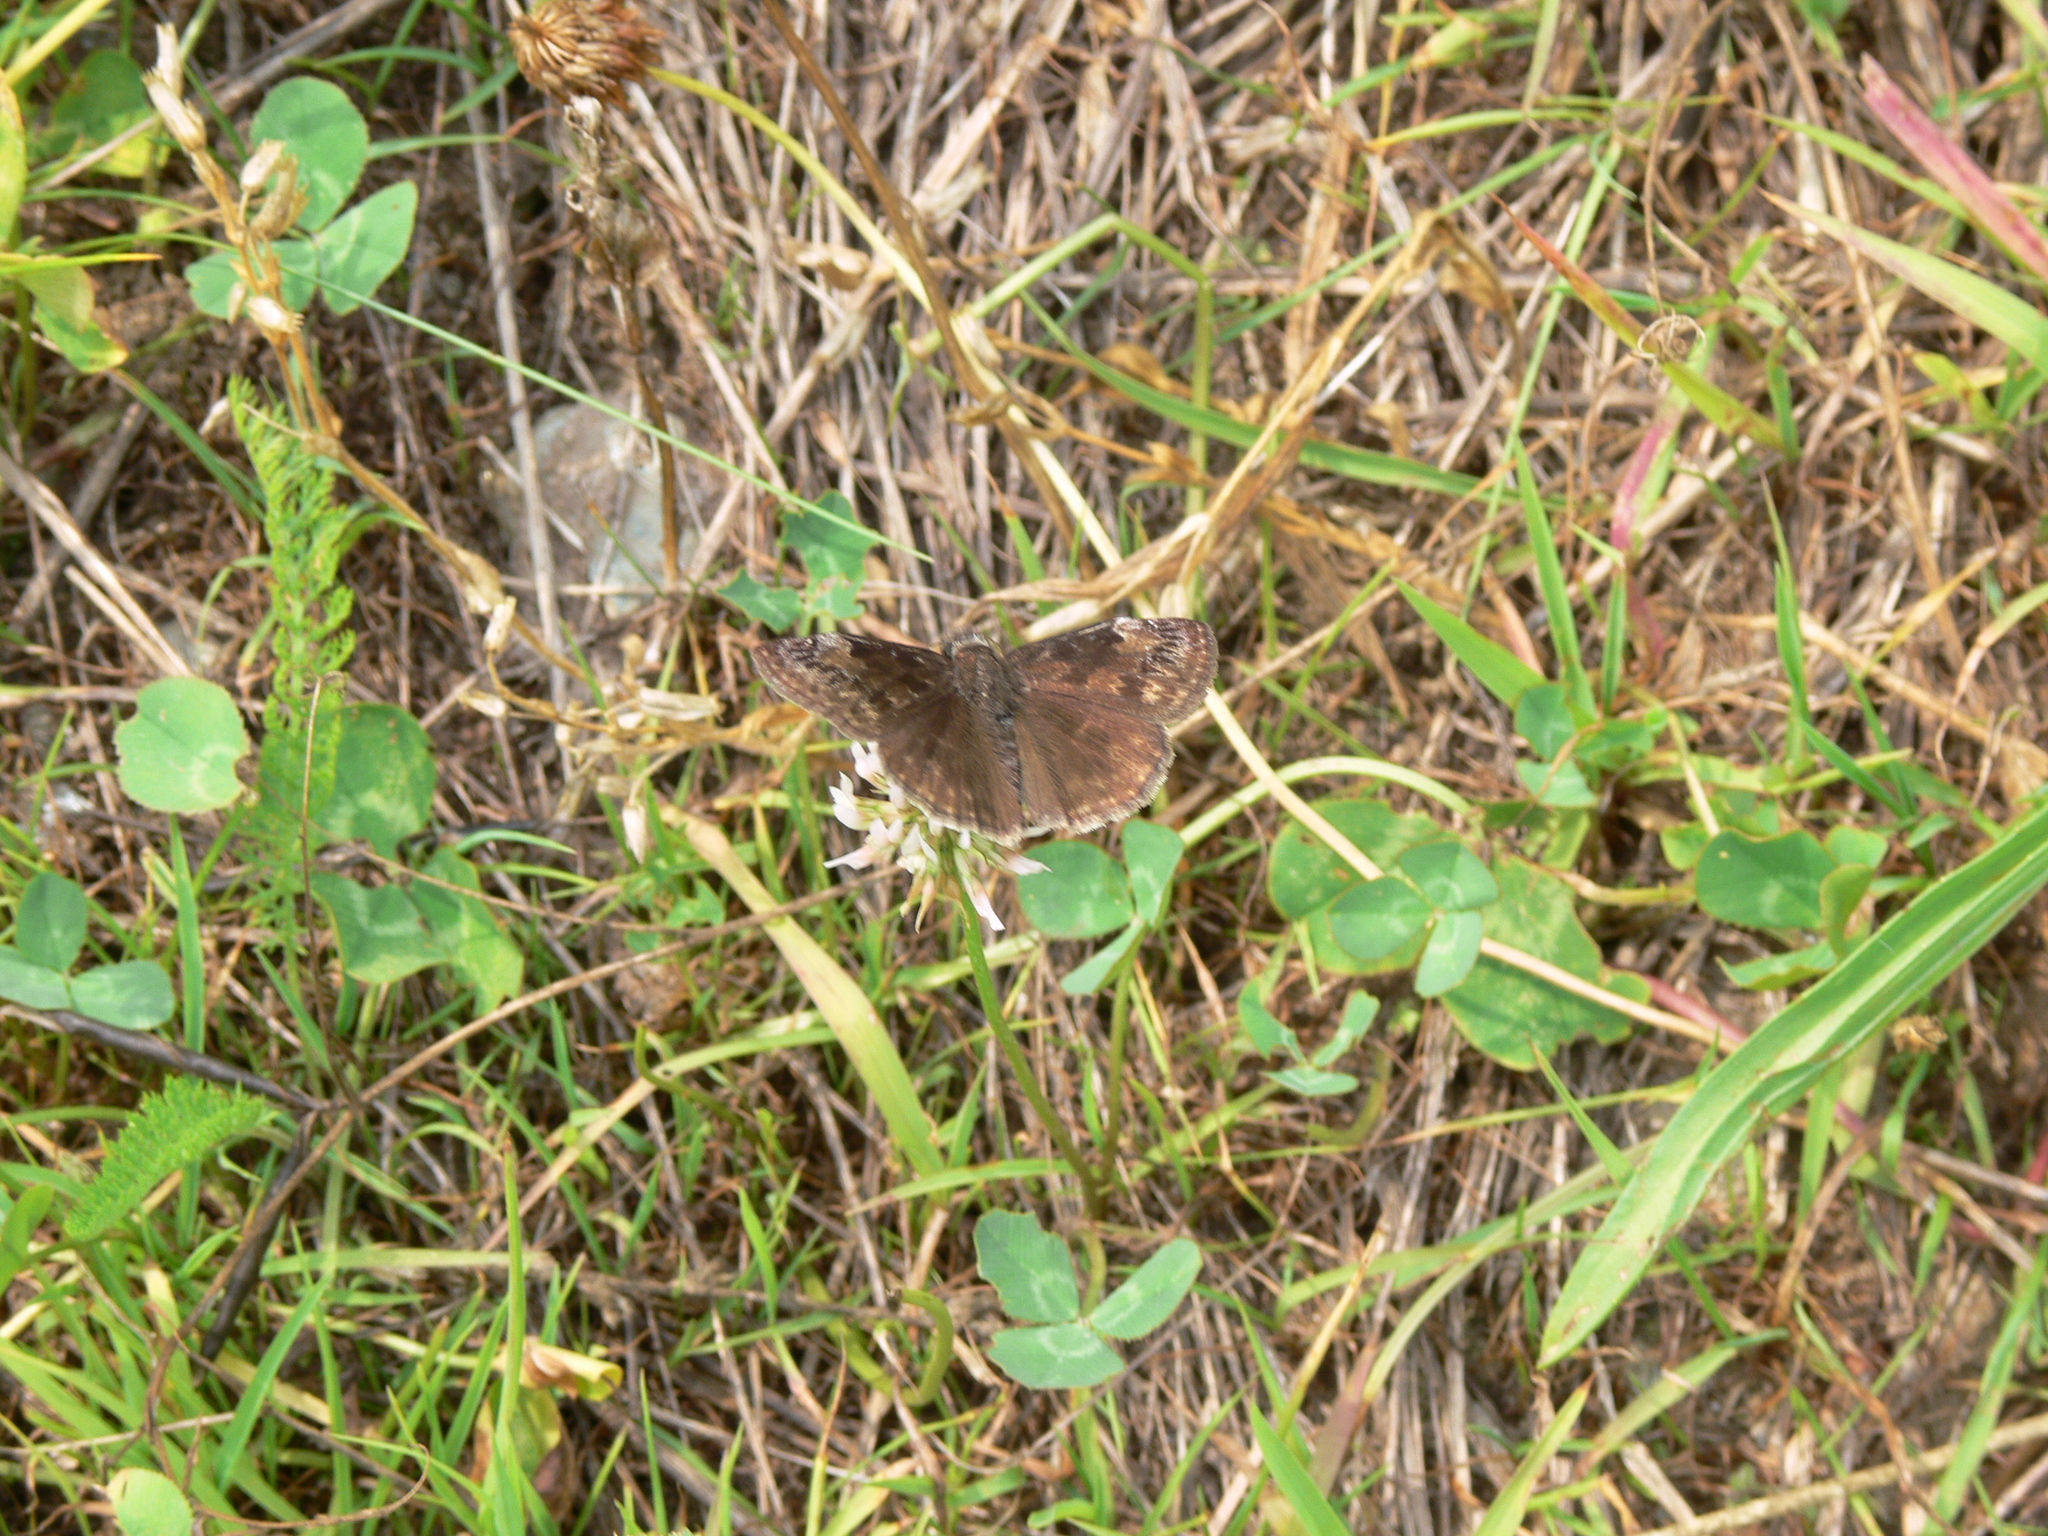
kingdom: Animalia
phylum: Arthropoda
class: Insecta
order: Lepidoptera
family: Hesperiidae
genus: Erynnis
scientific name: Erynnis baptisiae
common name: Wild indigo duskywing
